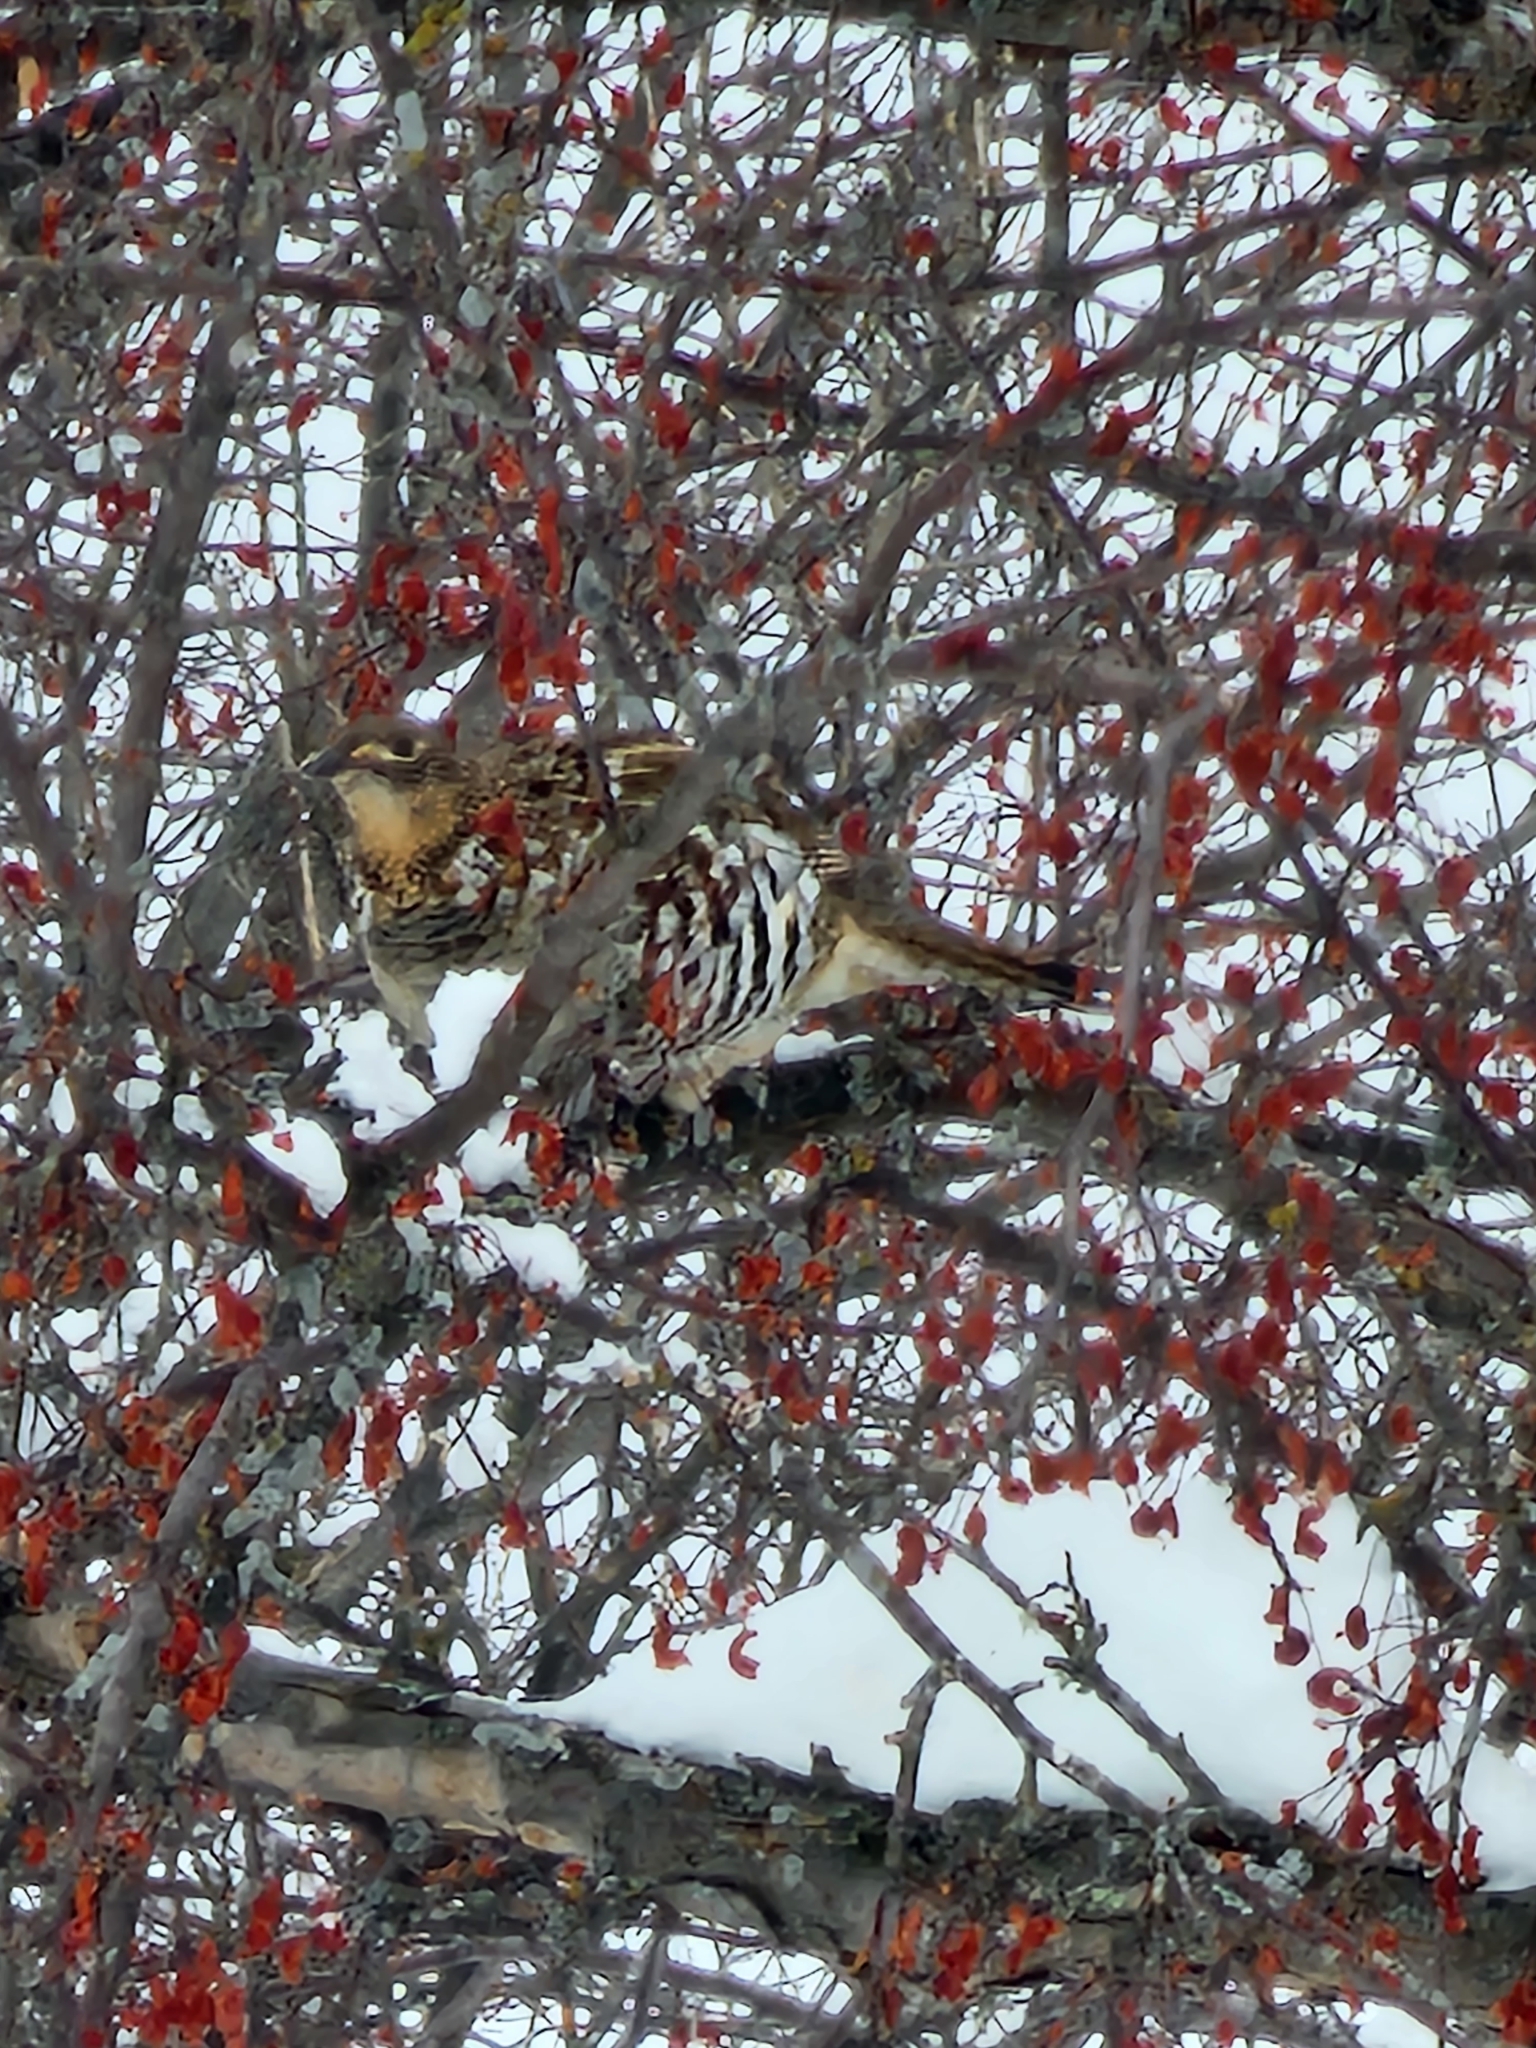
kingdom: Animalia
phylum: Chordata
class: Aves
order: Galliformes
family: Phasianidae
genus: Bonasa
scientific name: Bonasa umbellus
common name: Ruffed grouse
